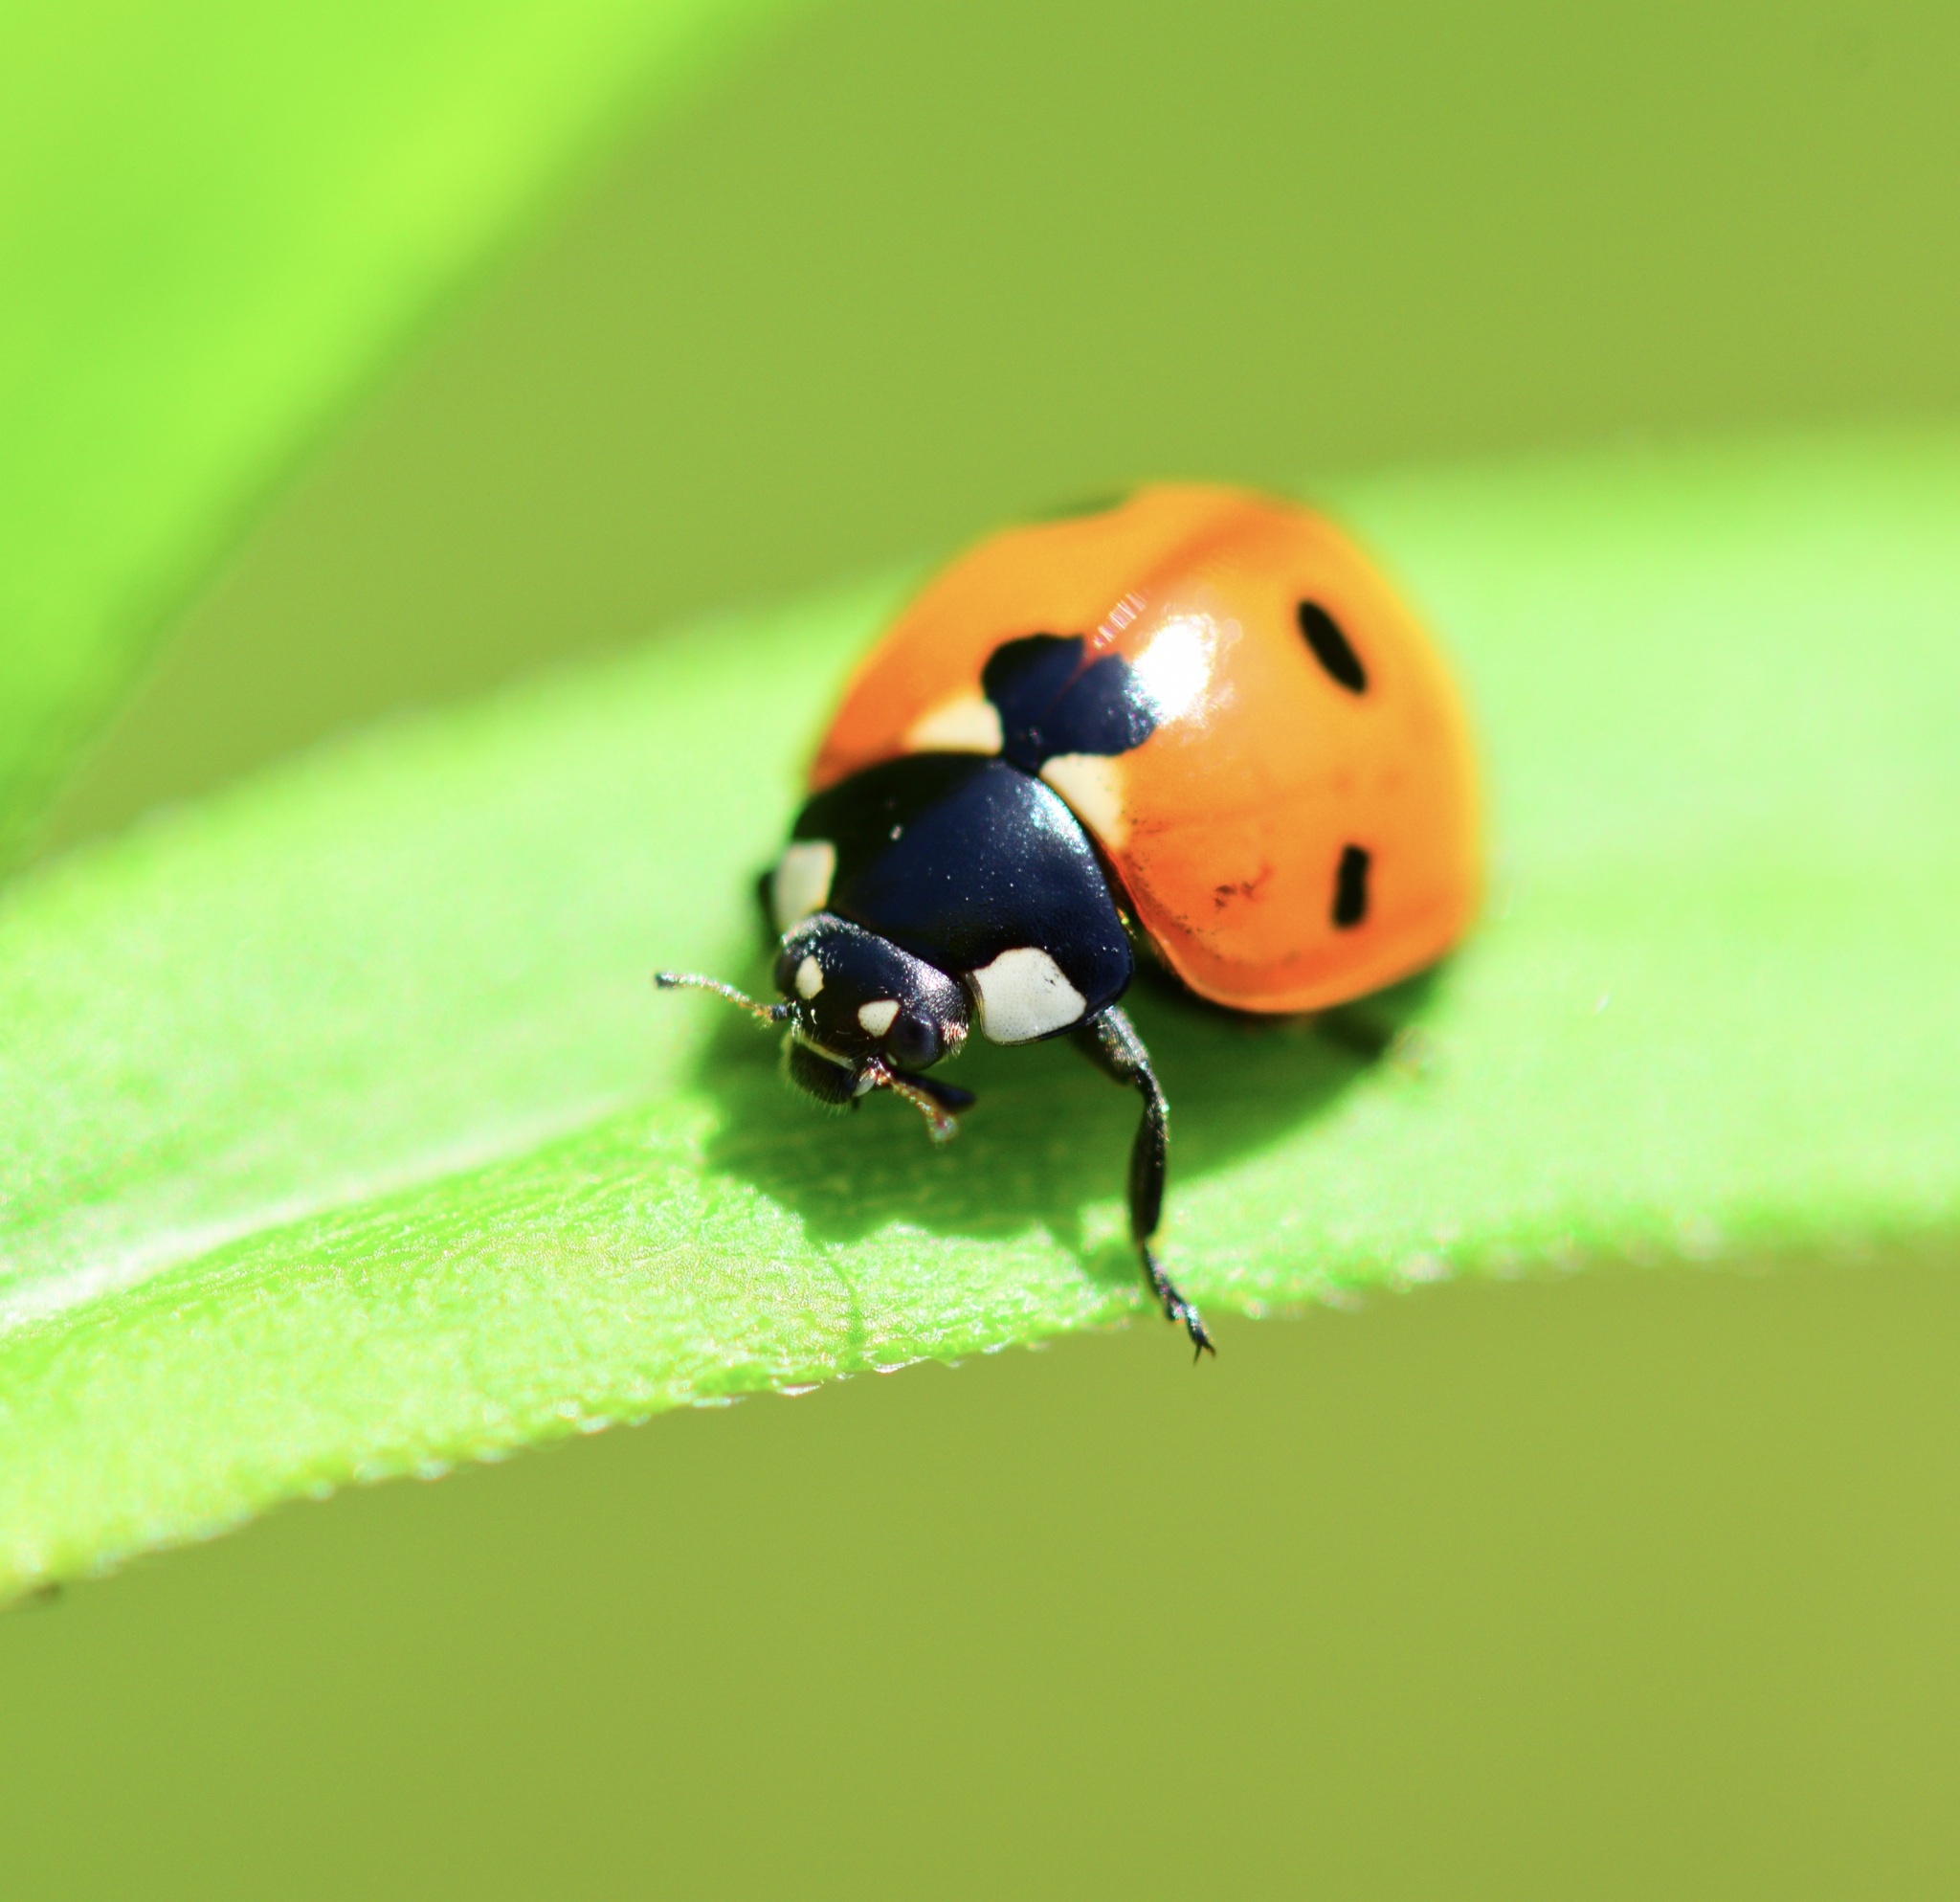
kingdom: Animalia
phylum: Arthropoda
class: Insecta
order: Coleoptera
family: Coccinellidae
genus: Coccinella
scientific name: Coccinella septempunctata
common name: Sevenspotted lady beetle
